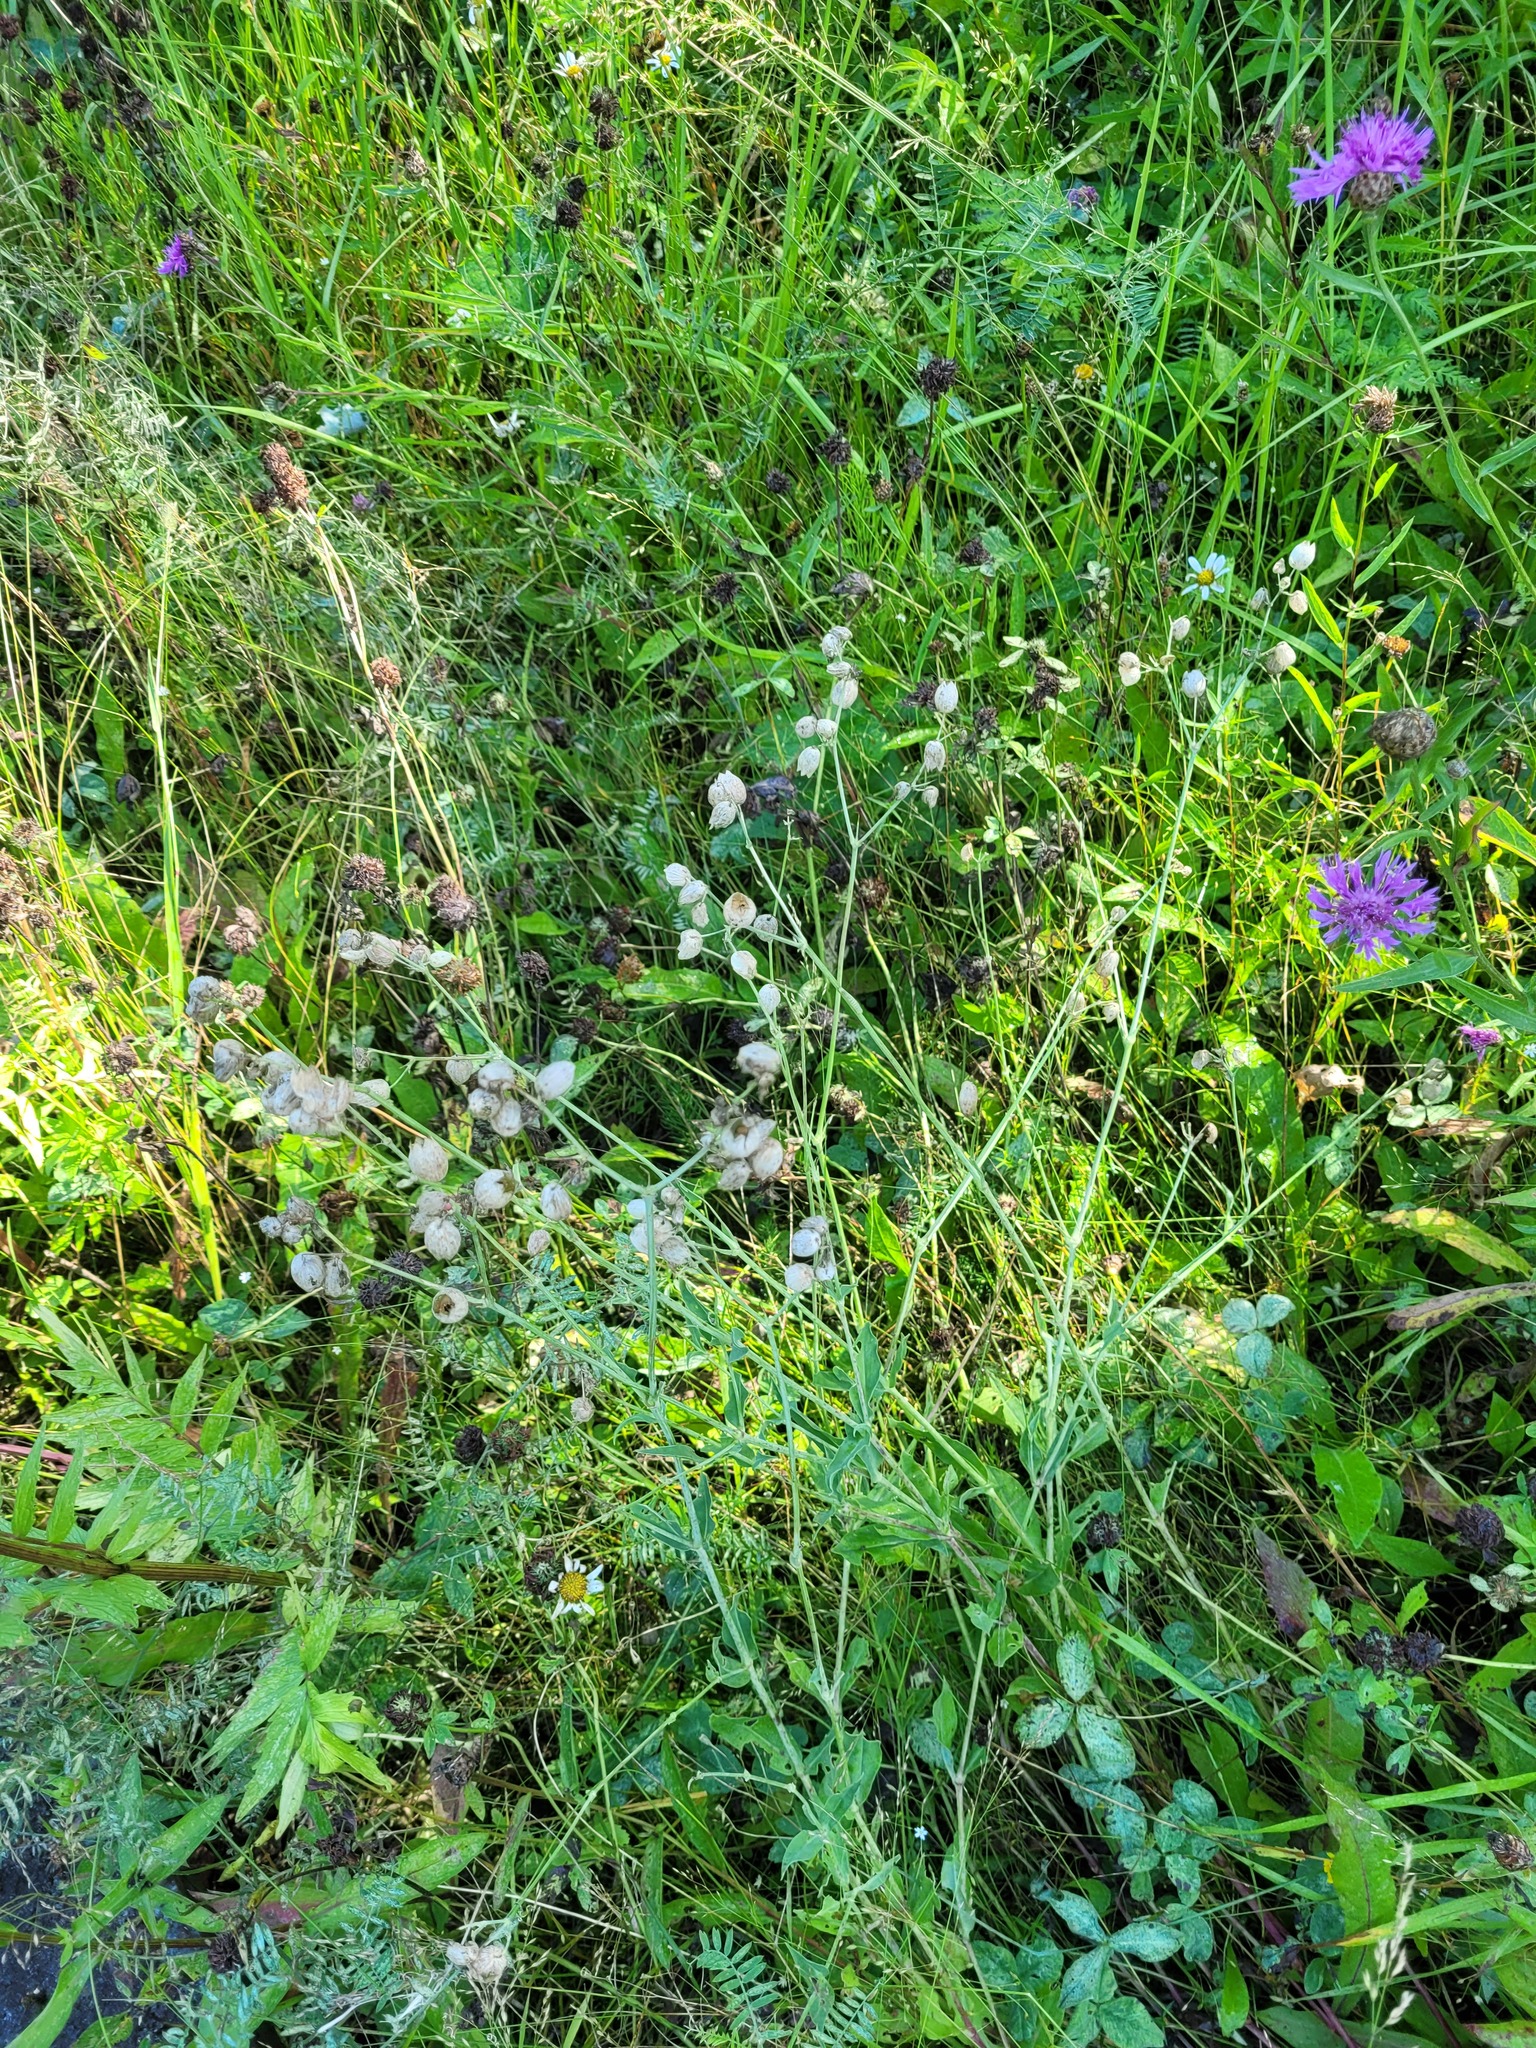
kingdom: Plantae
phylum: Tracheophyta
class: Magnoliopsida
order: Caryophyllales
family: Caryophyllaceae
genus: Silene
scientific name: Silene vulgaris
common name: Bladder campion
